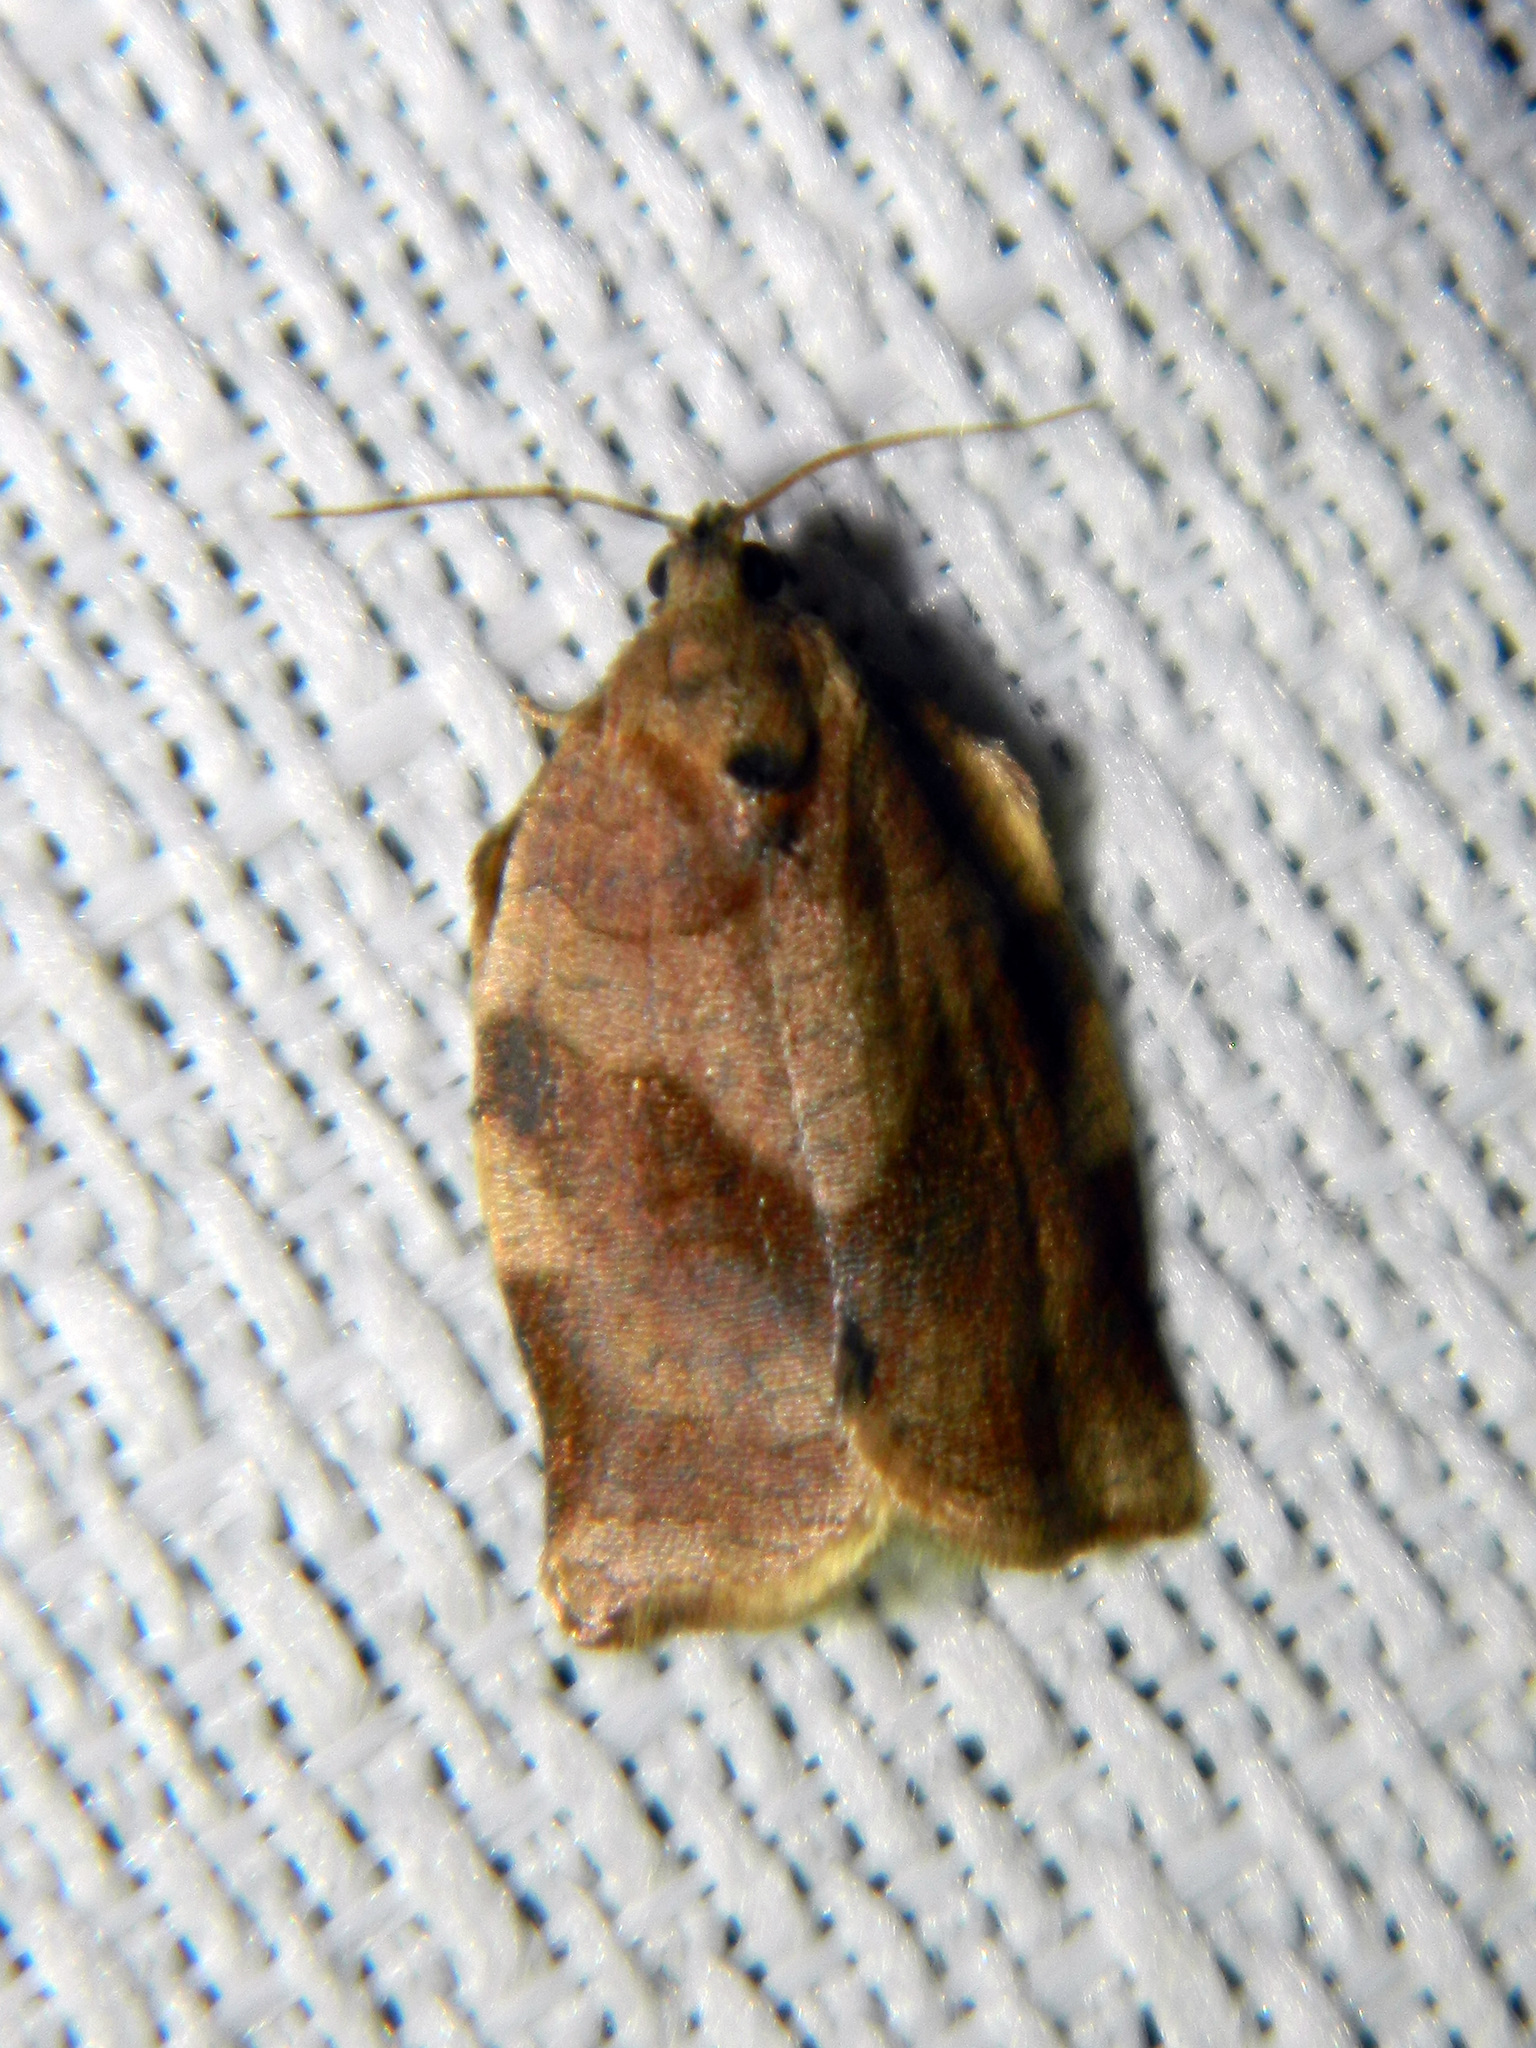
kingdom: Animalia
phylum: Arthropoda
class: Insecta
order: Lepidoptera
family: Tortricidae
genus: Choristoneura
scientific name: Choristoneura rosaceana
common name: Oblique-banded leafroller moth
